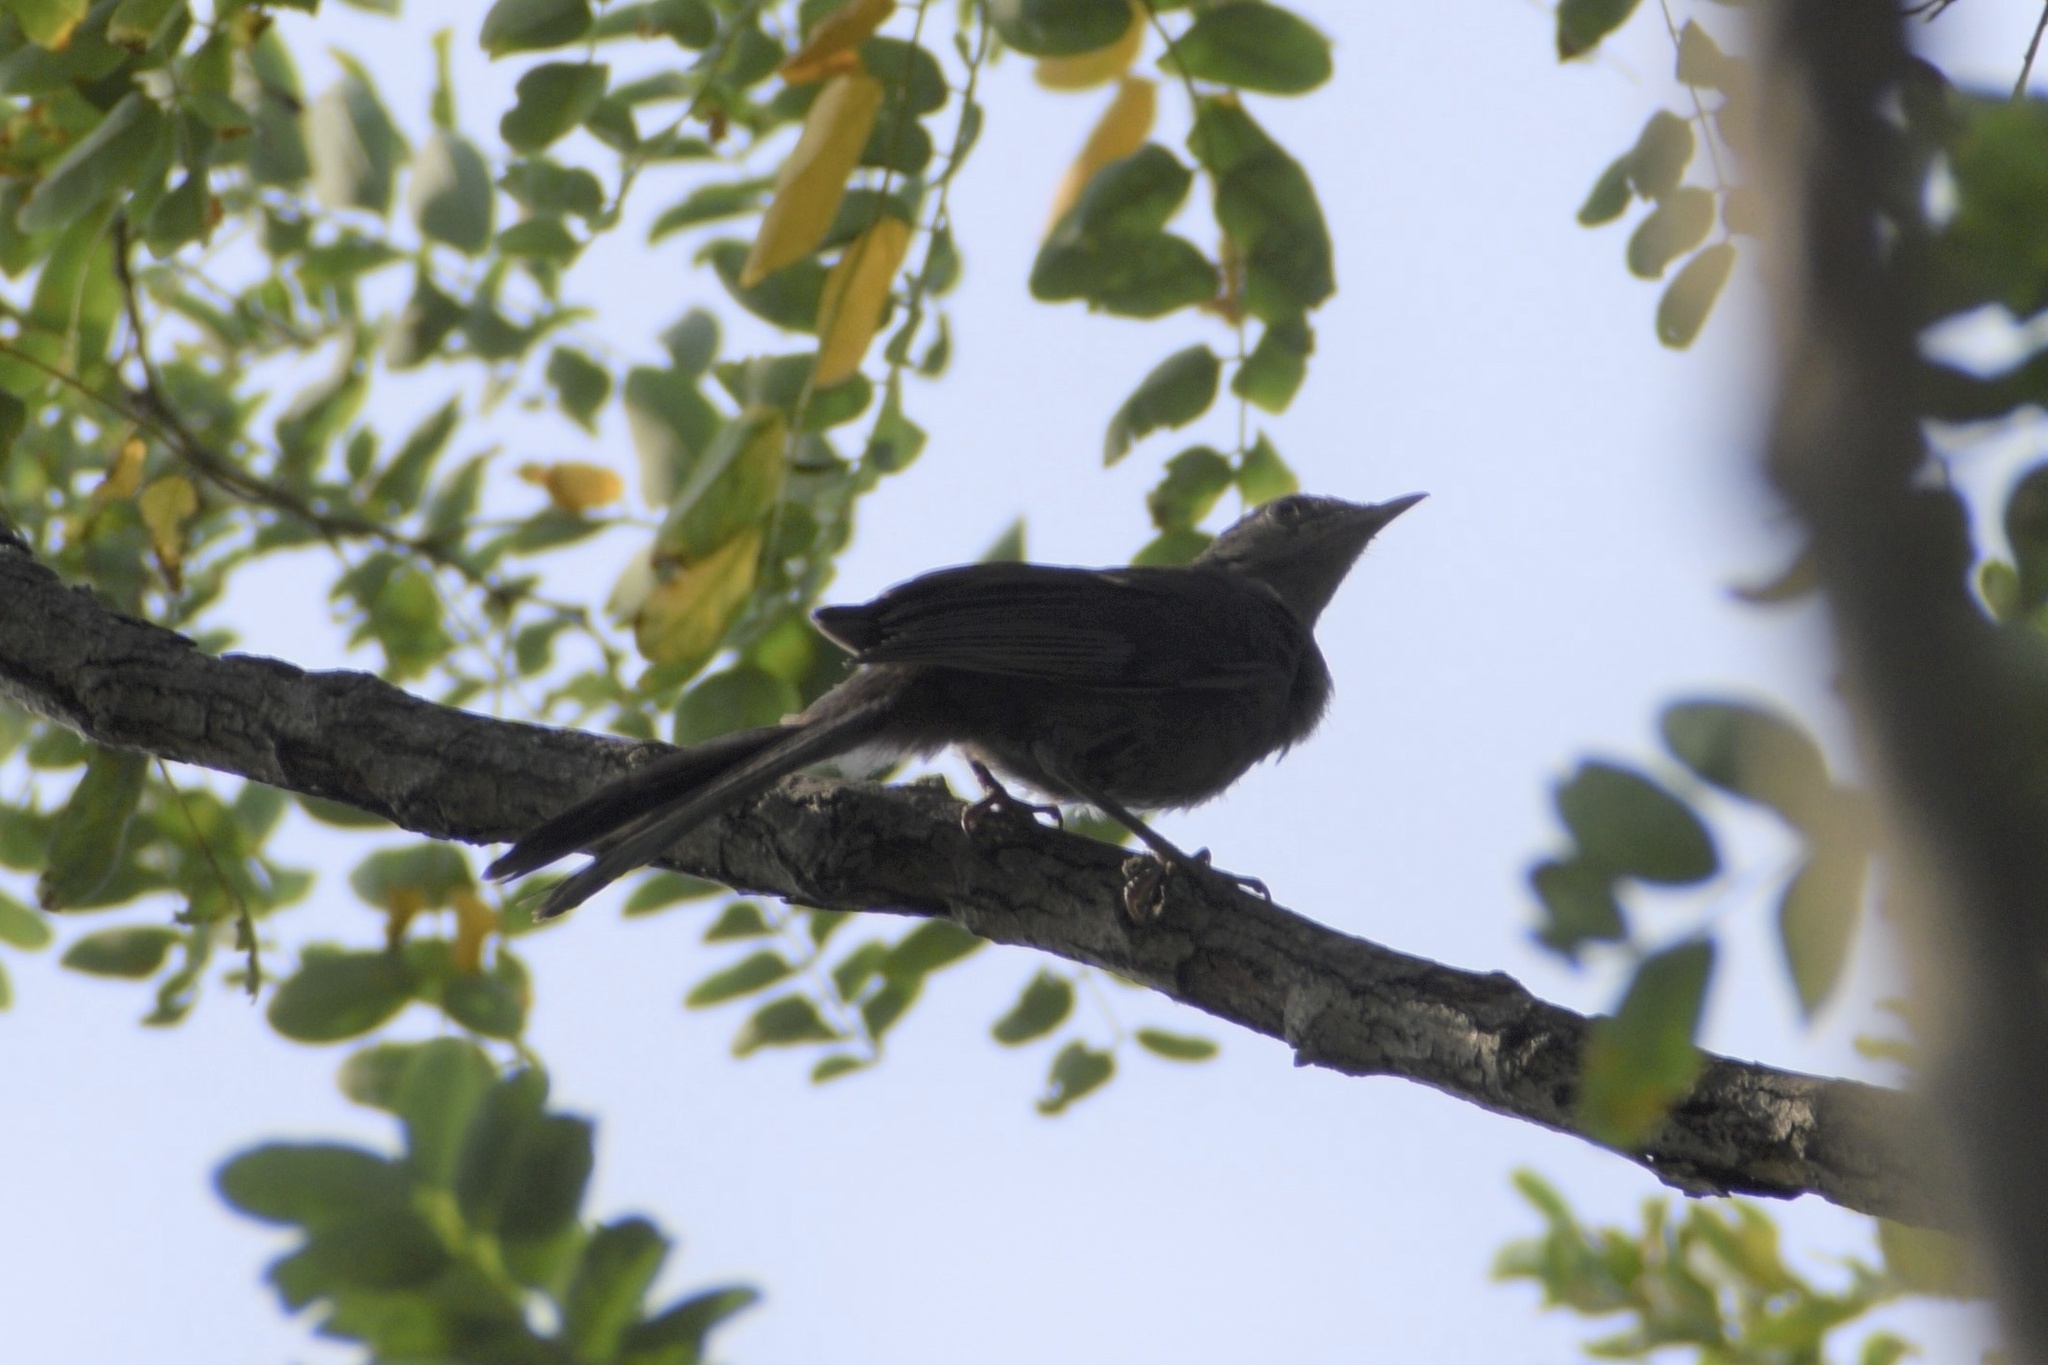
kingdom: Animalia
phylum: Chordata
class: Aves
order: Passeriformes
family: Mimidae
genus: Dumetella
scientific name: Dumetella carolinensis
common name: Gray catbird
